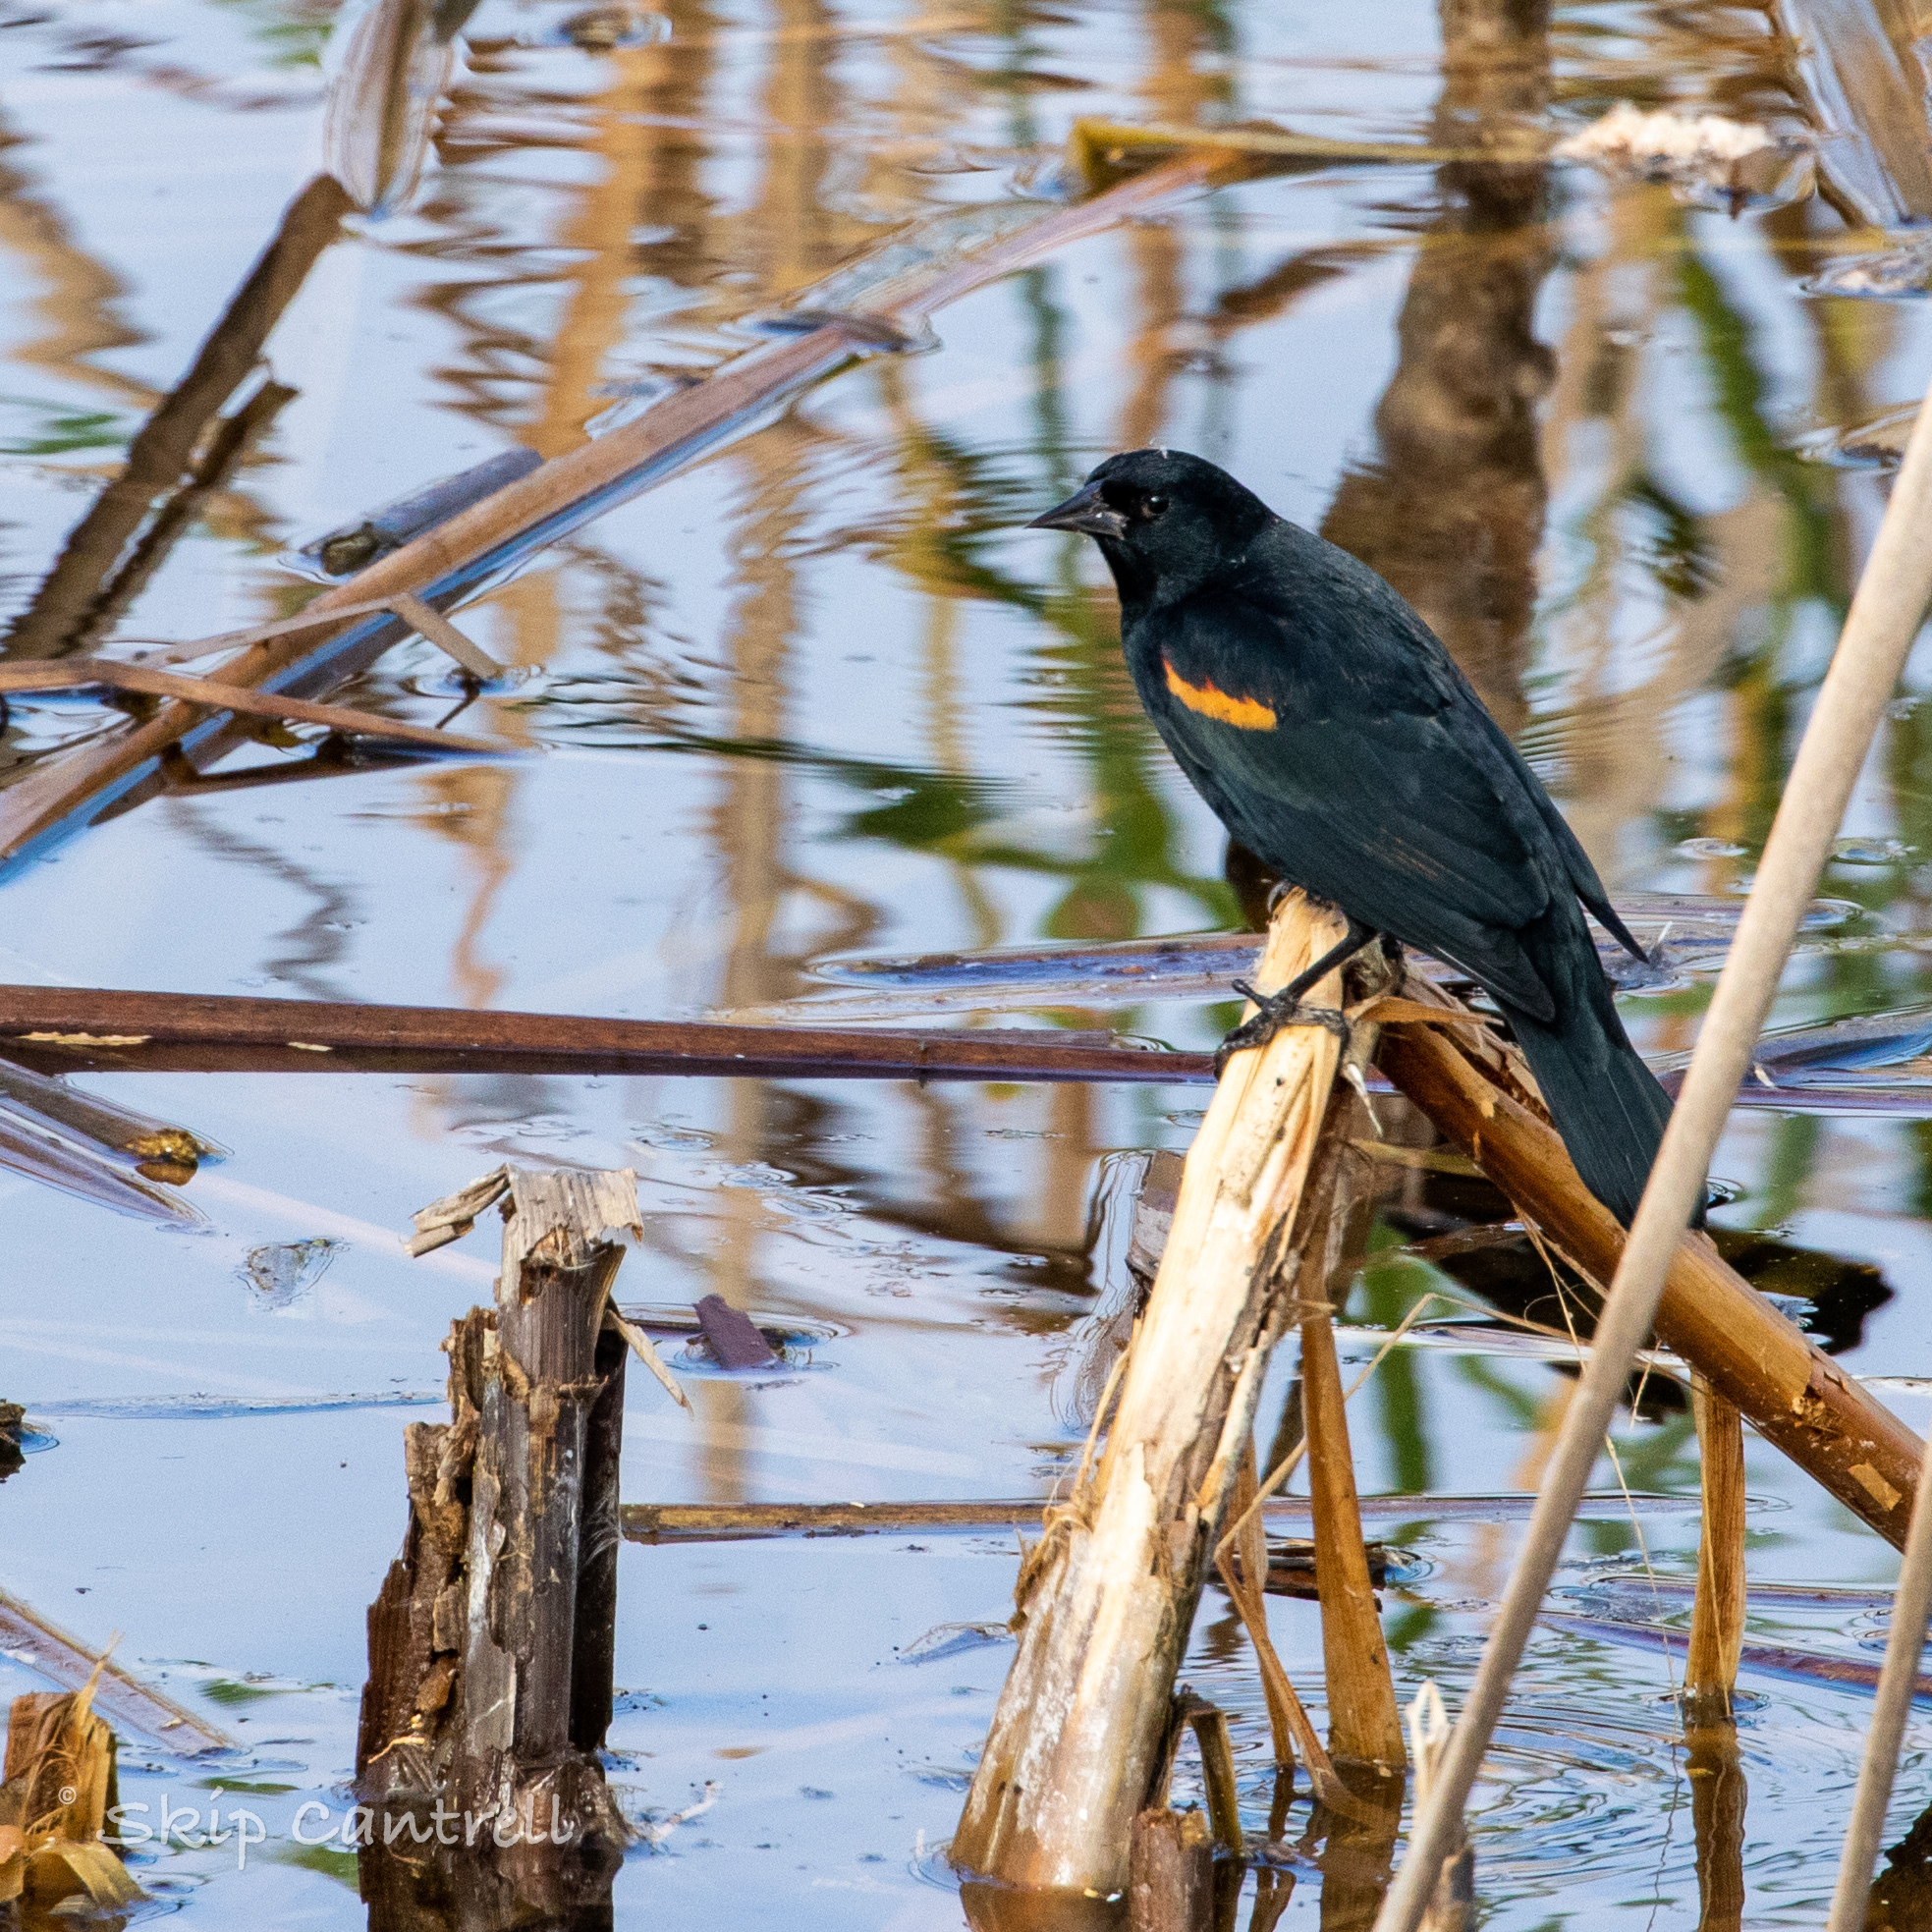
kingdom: Animalia
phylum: Chordata
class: Aves
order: Passeriformes
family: Icteridae
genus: Agelaius
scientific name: Agelaius phoeniceus
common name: Red-winged blackbird
